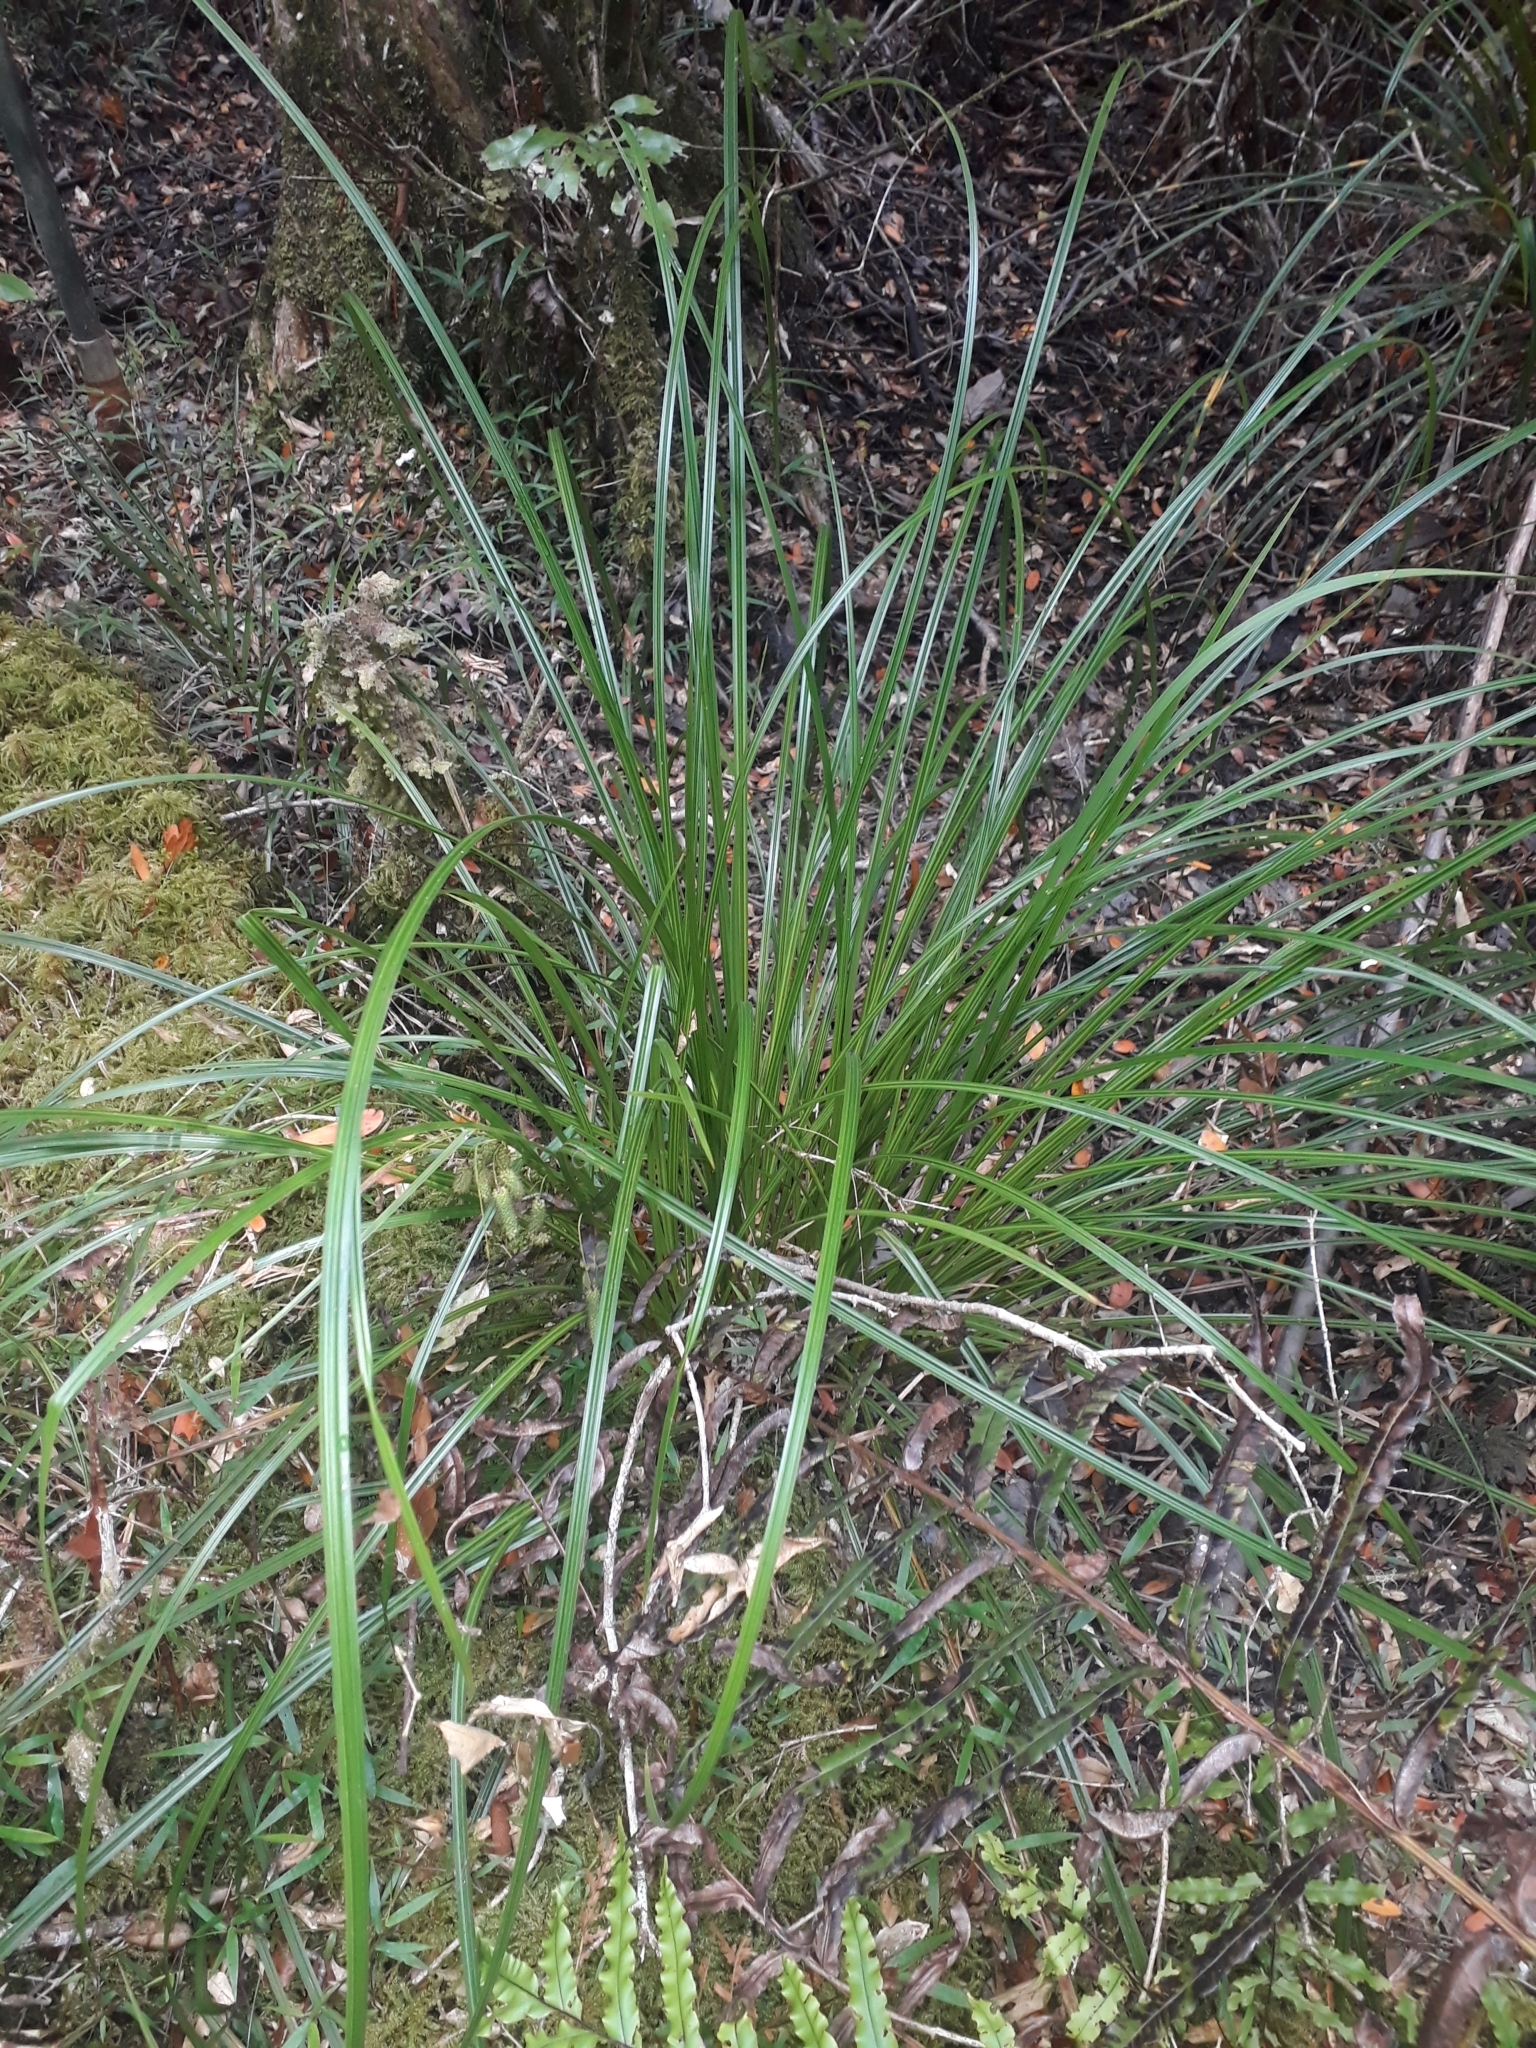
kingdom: Plantae
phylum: Tracheophyta
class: Liliopsida
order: Poales
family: Cyperaceae
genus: Carex
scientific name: Carex lessoniana
